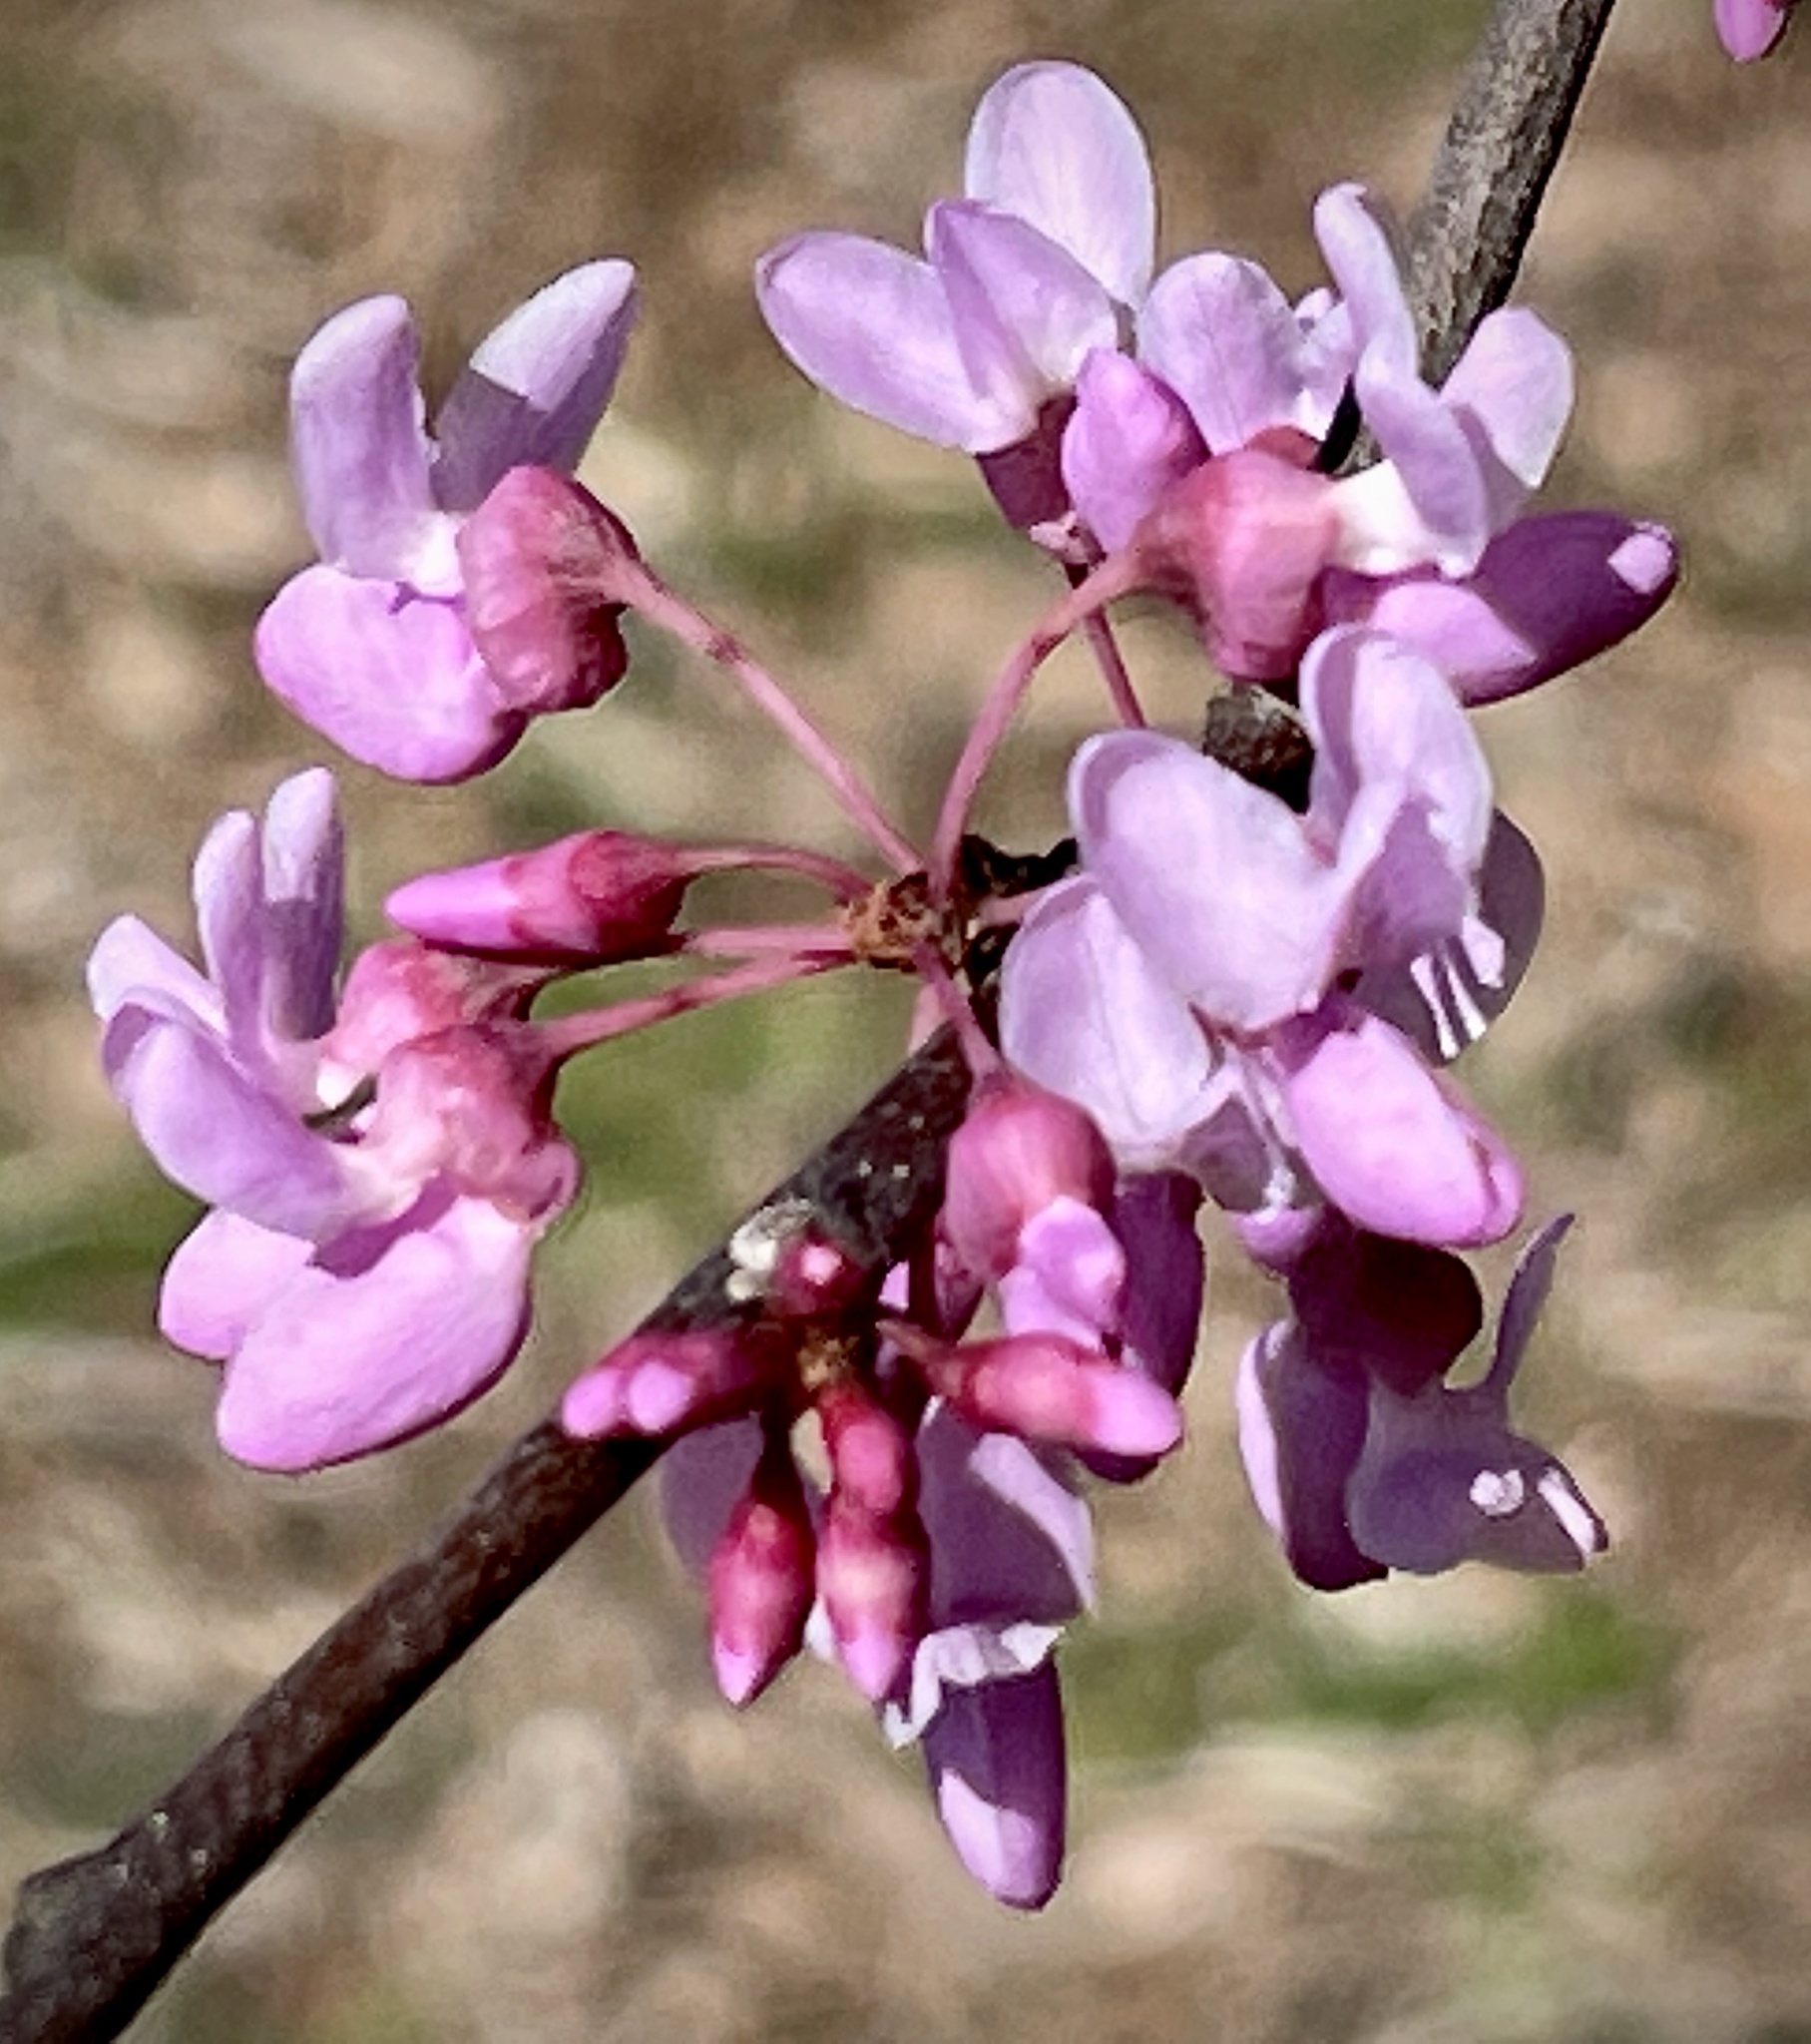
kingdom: Plantae
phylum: Tracheophyta
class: Magnoliopsida
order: Fabales
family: Fabaceae
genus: Cercis
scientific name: Cercis canadensis
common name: Eastern redbud
